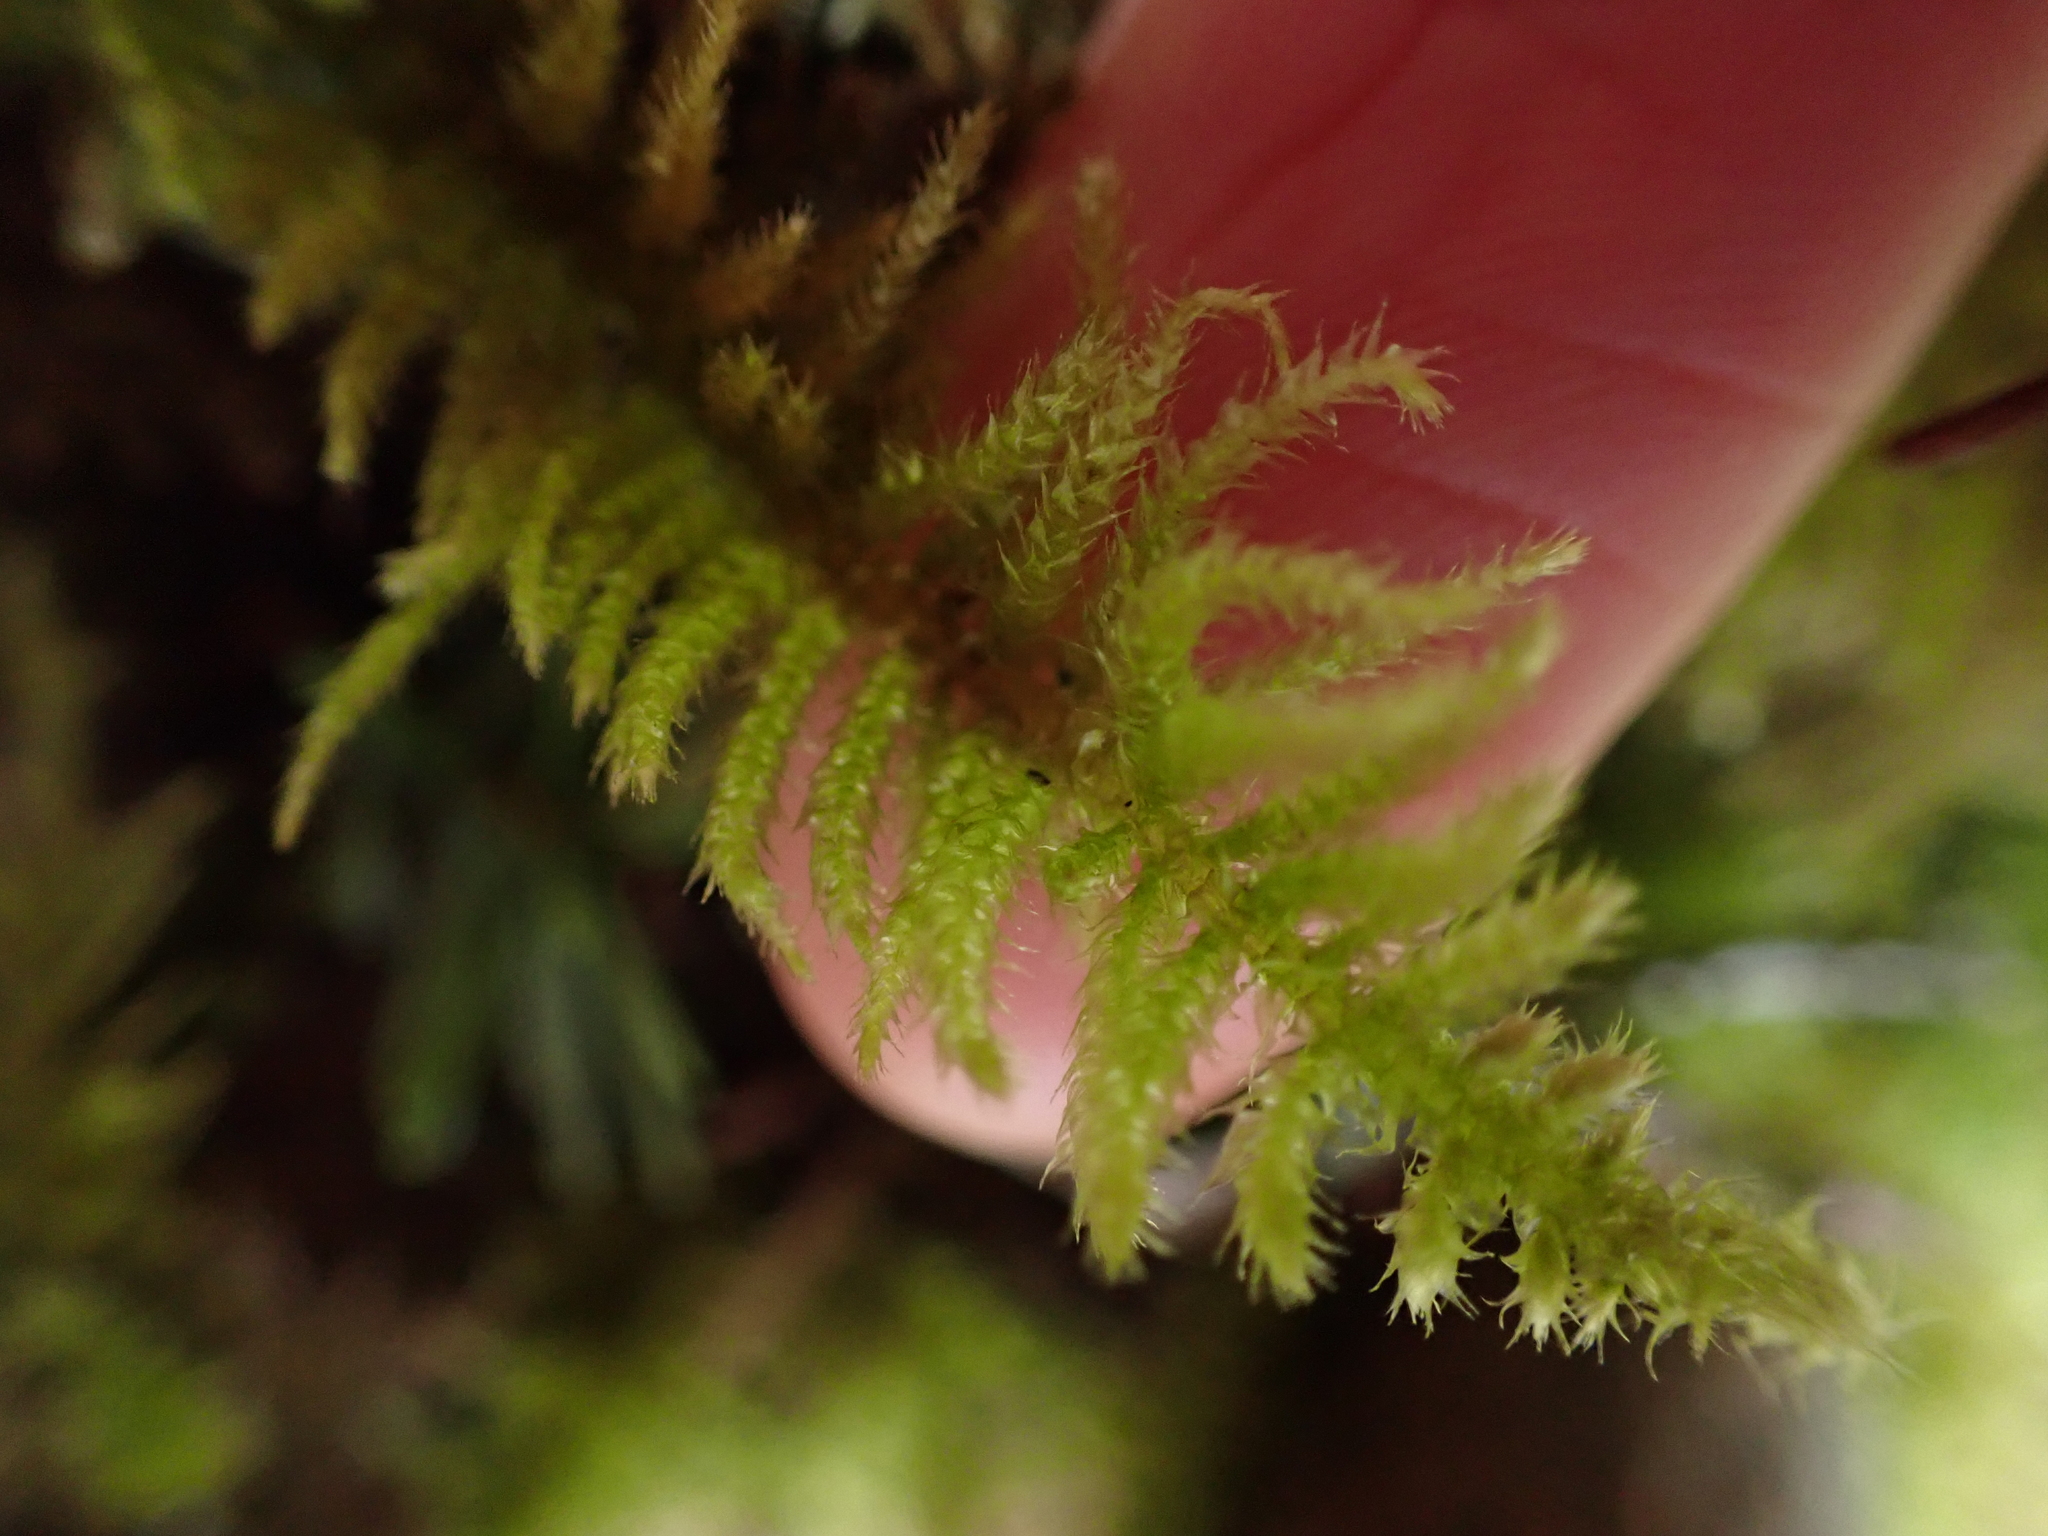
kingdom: Plantae
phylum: Bryophyta
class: Bryopsida
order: Hypnales
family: Brachytheciaceae
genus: Kindbergia
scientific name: Kindbergia oregana
